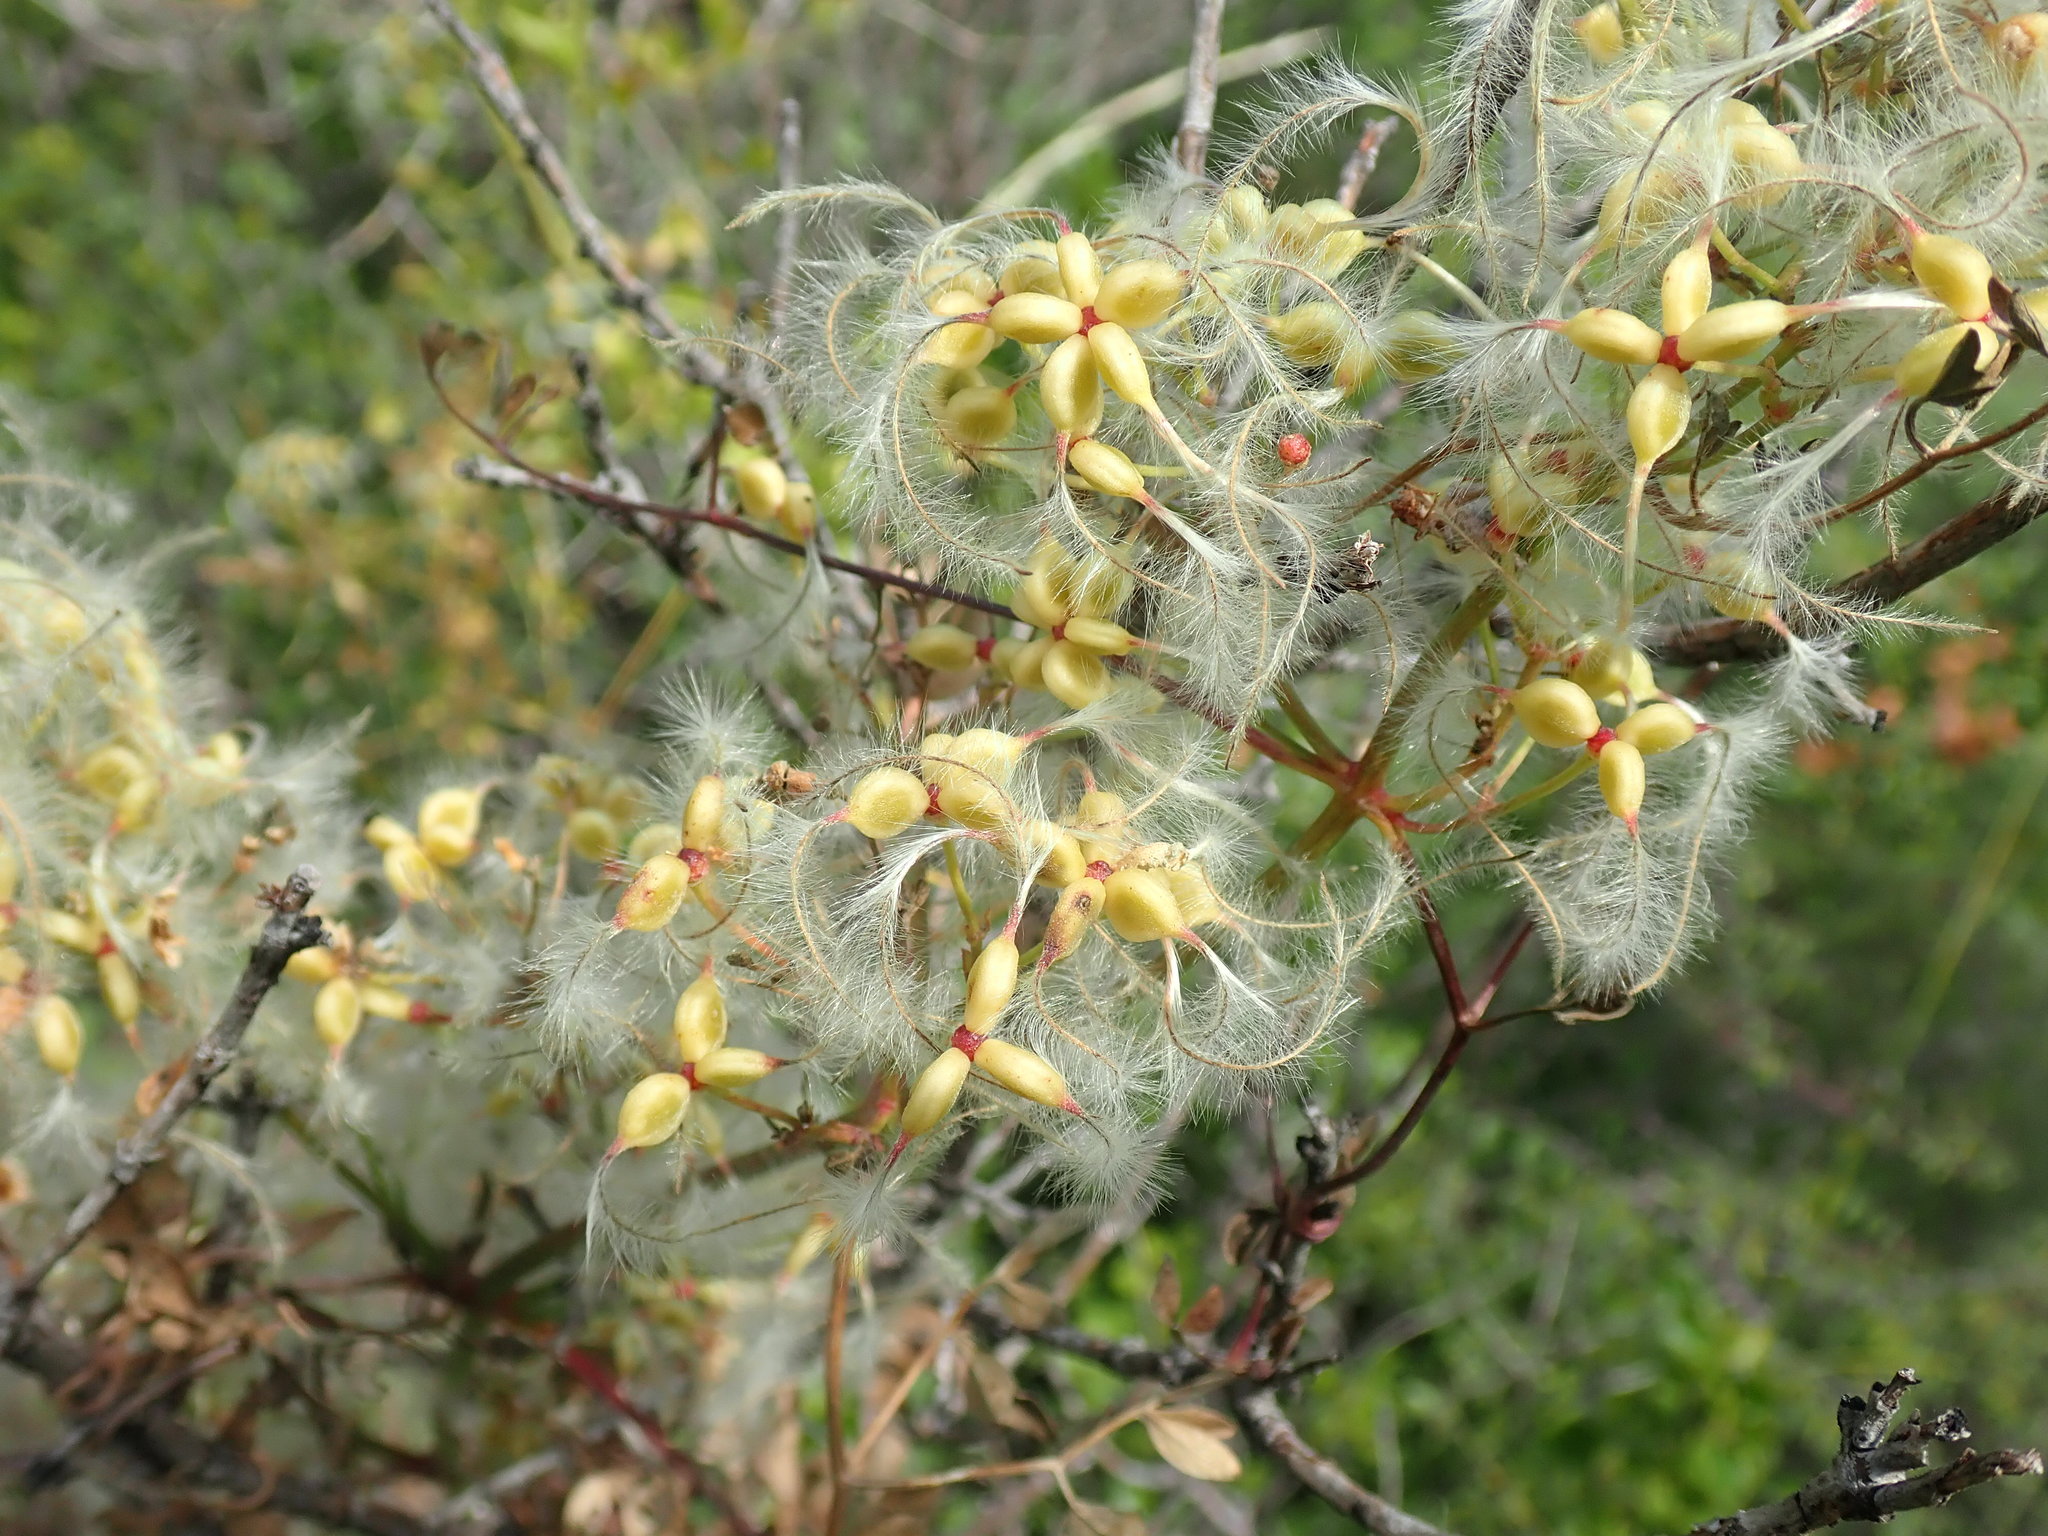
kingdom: Plantae
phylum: Tracheophyta
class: Magnoliopsida
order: Ranunculales
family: Ranunculaceae
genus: Clematis
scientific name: Clematis flammula
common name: Virgin's-bower
